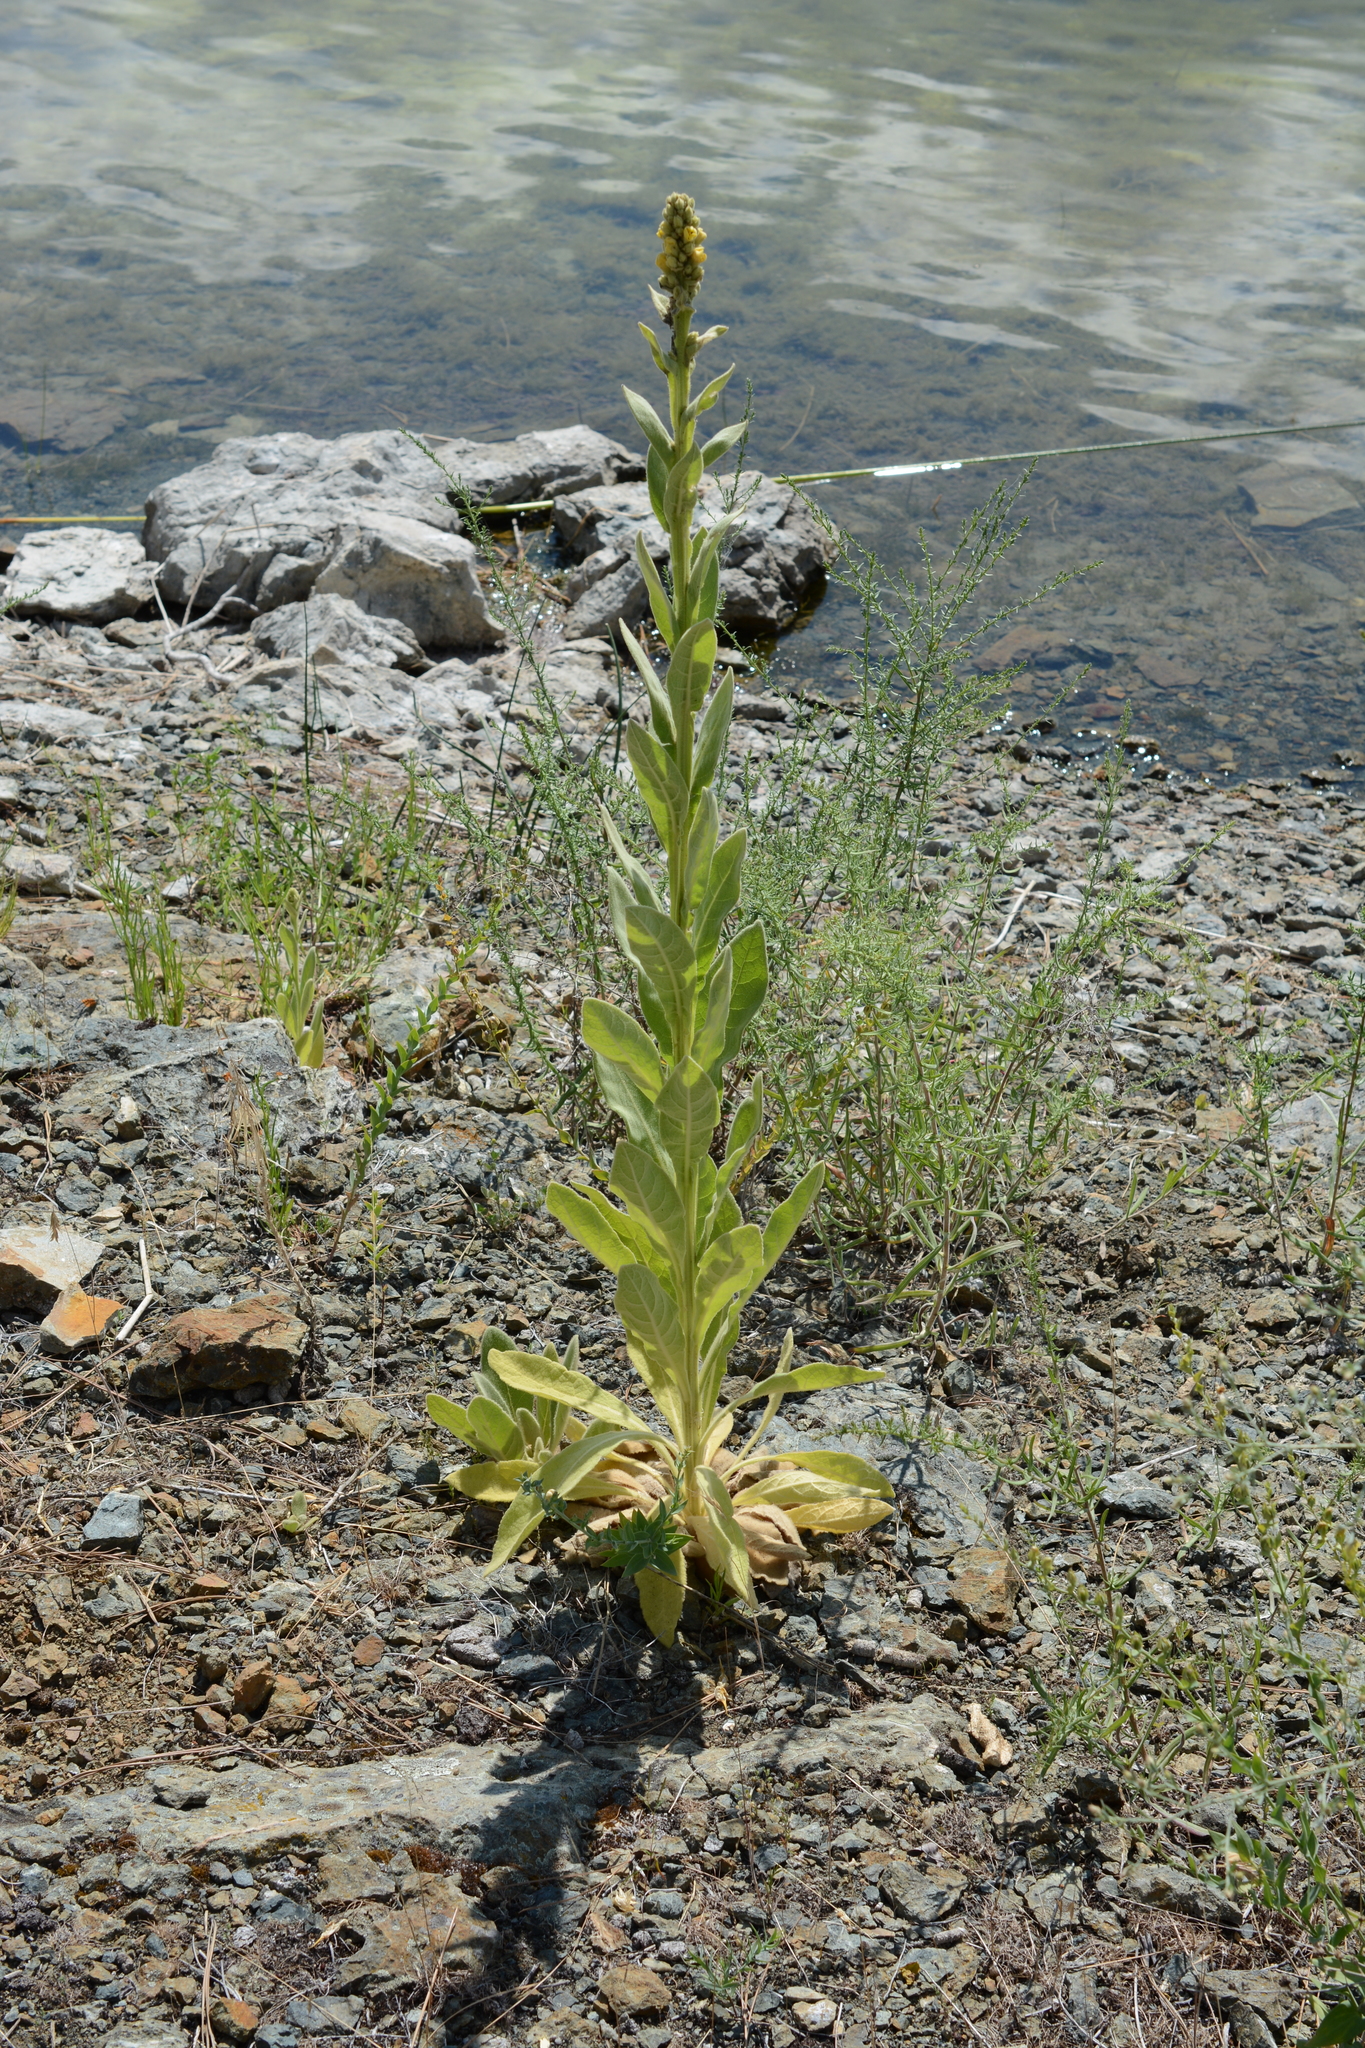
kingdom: Plantae
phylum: Tracheophyta
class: Magnoliopsida
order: Lamiales
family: Scrophulariaceae
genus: Verbascum
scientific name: Verbascum thapsus
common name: Common mullein
